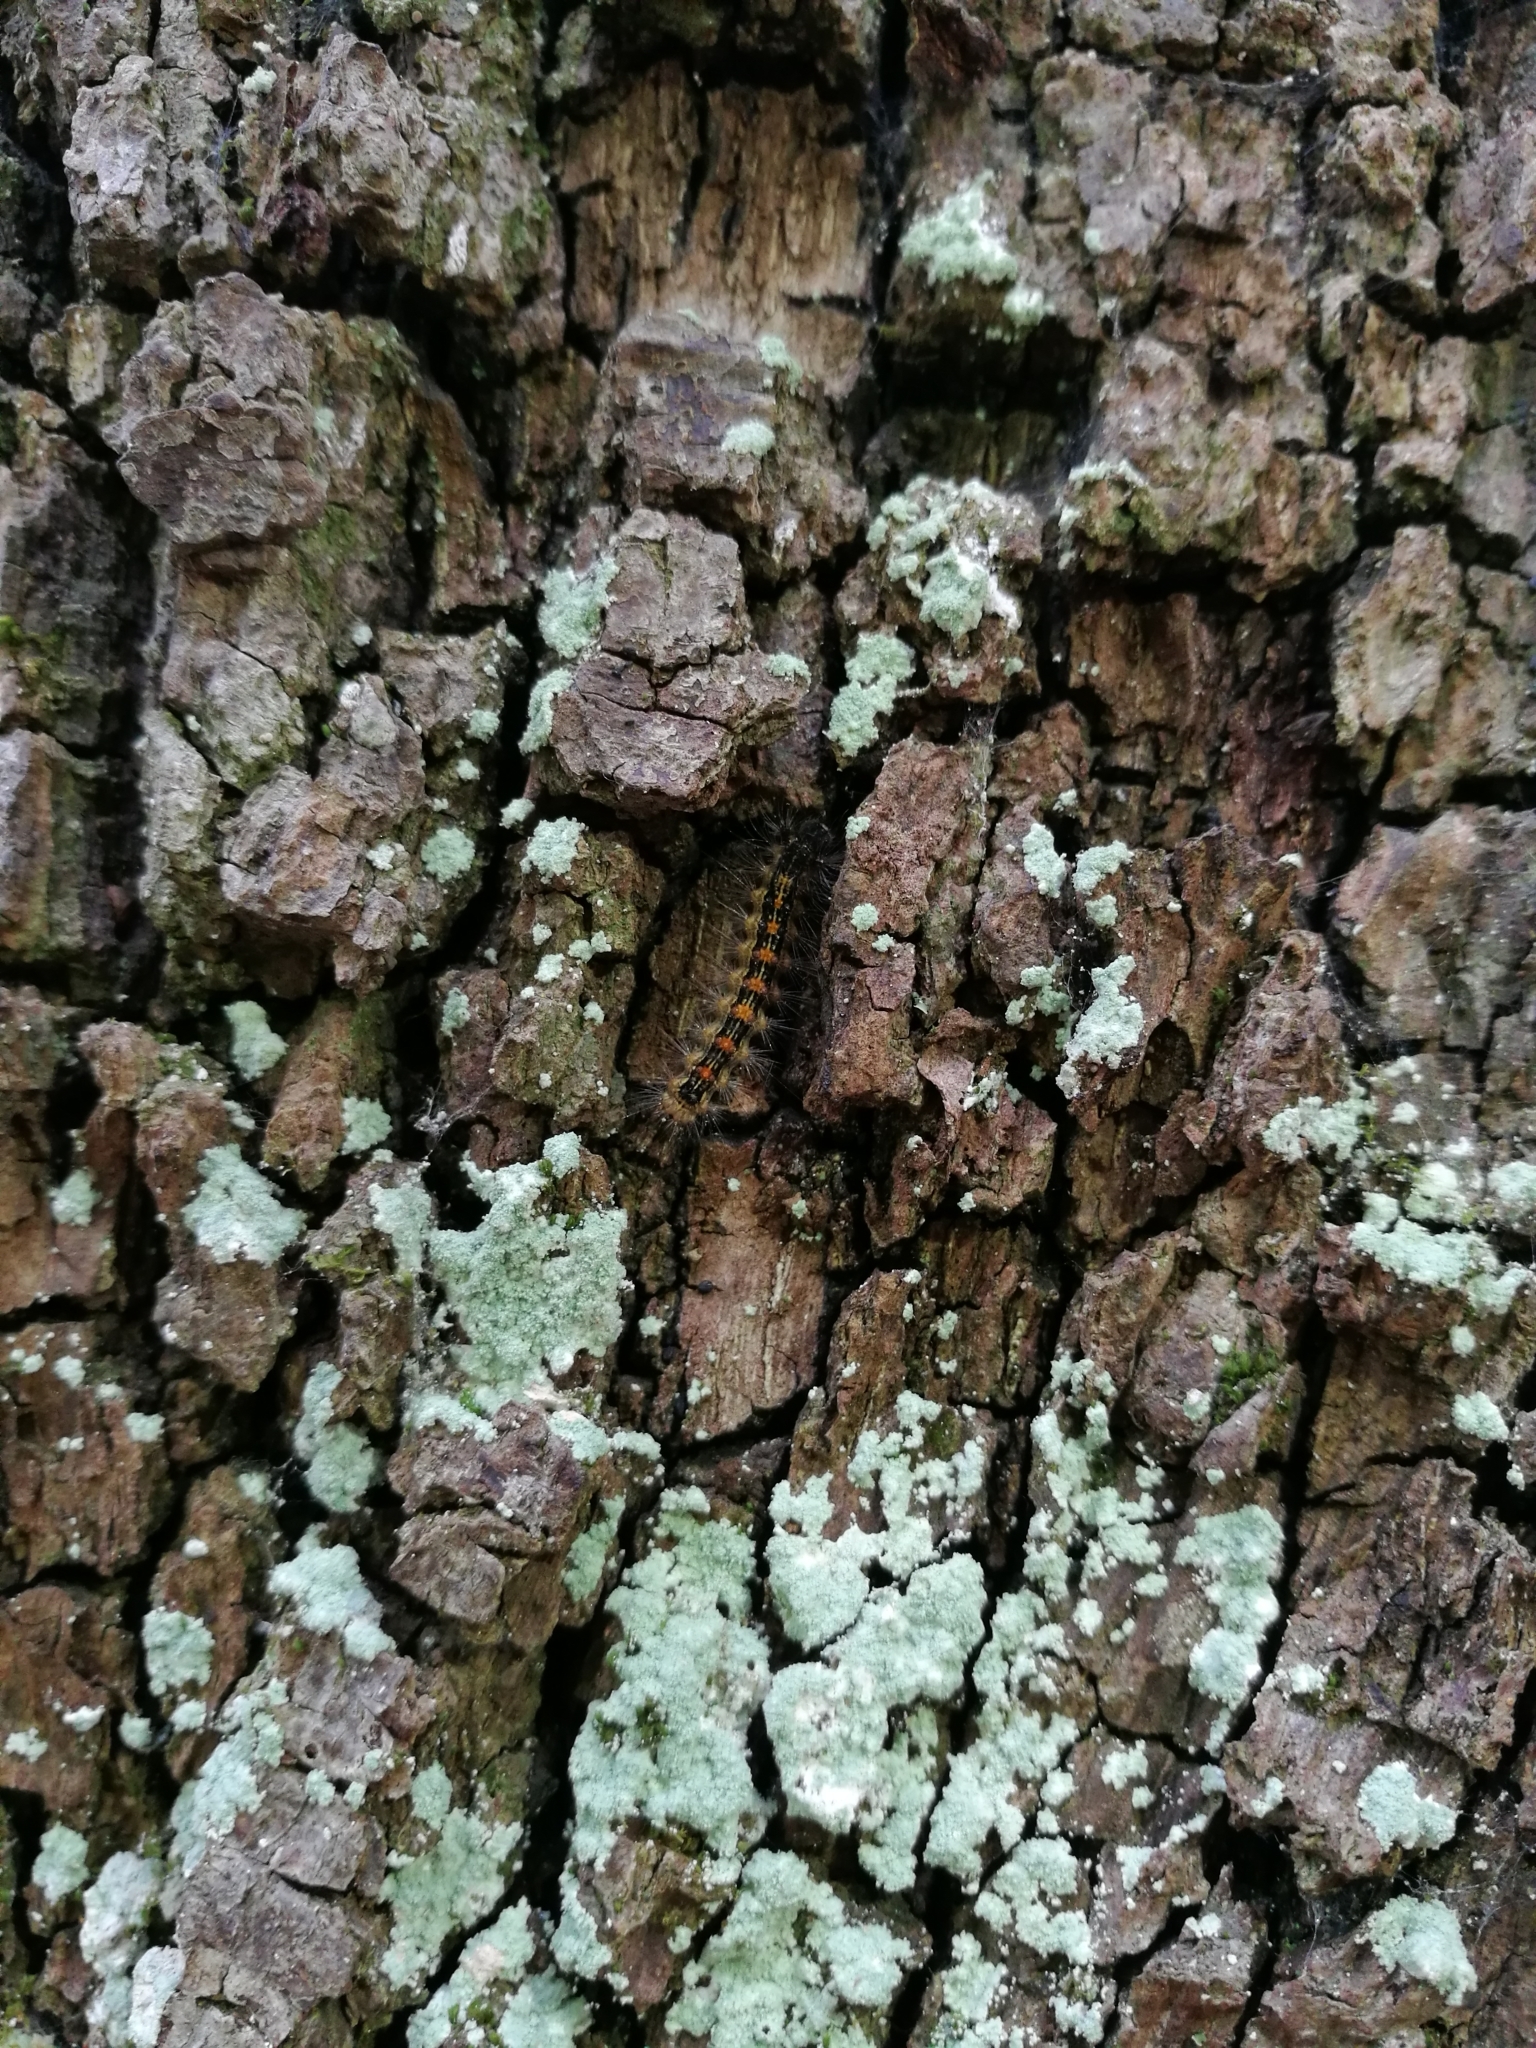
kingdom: Animalia
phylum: Arthropoda
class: Insecta
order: Lepidoptera
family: Erebidae
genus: Lymantria
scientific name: Lymantria dispar
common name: Gypsy moth
